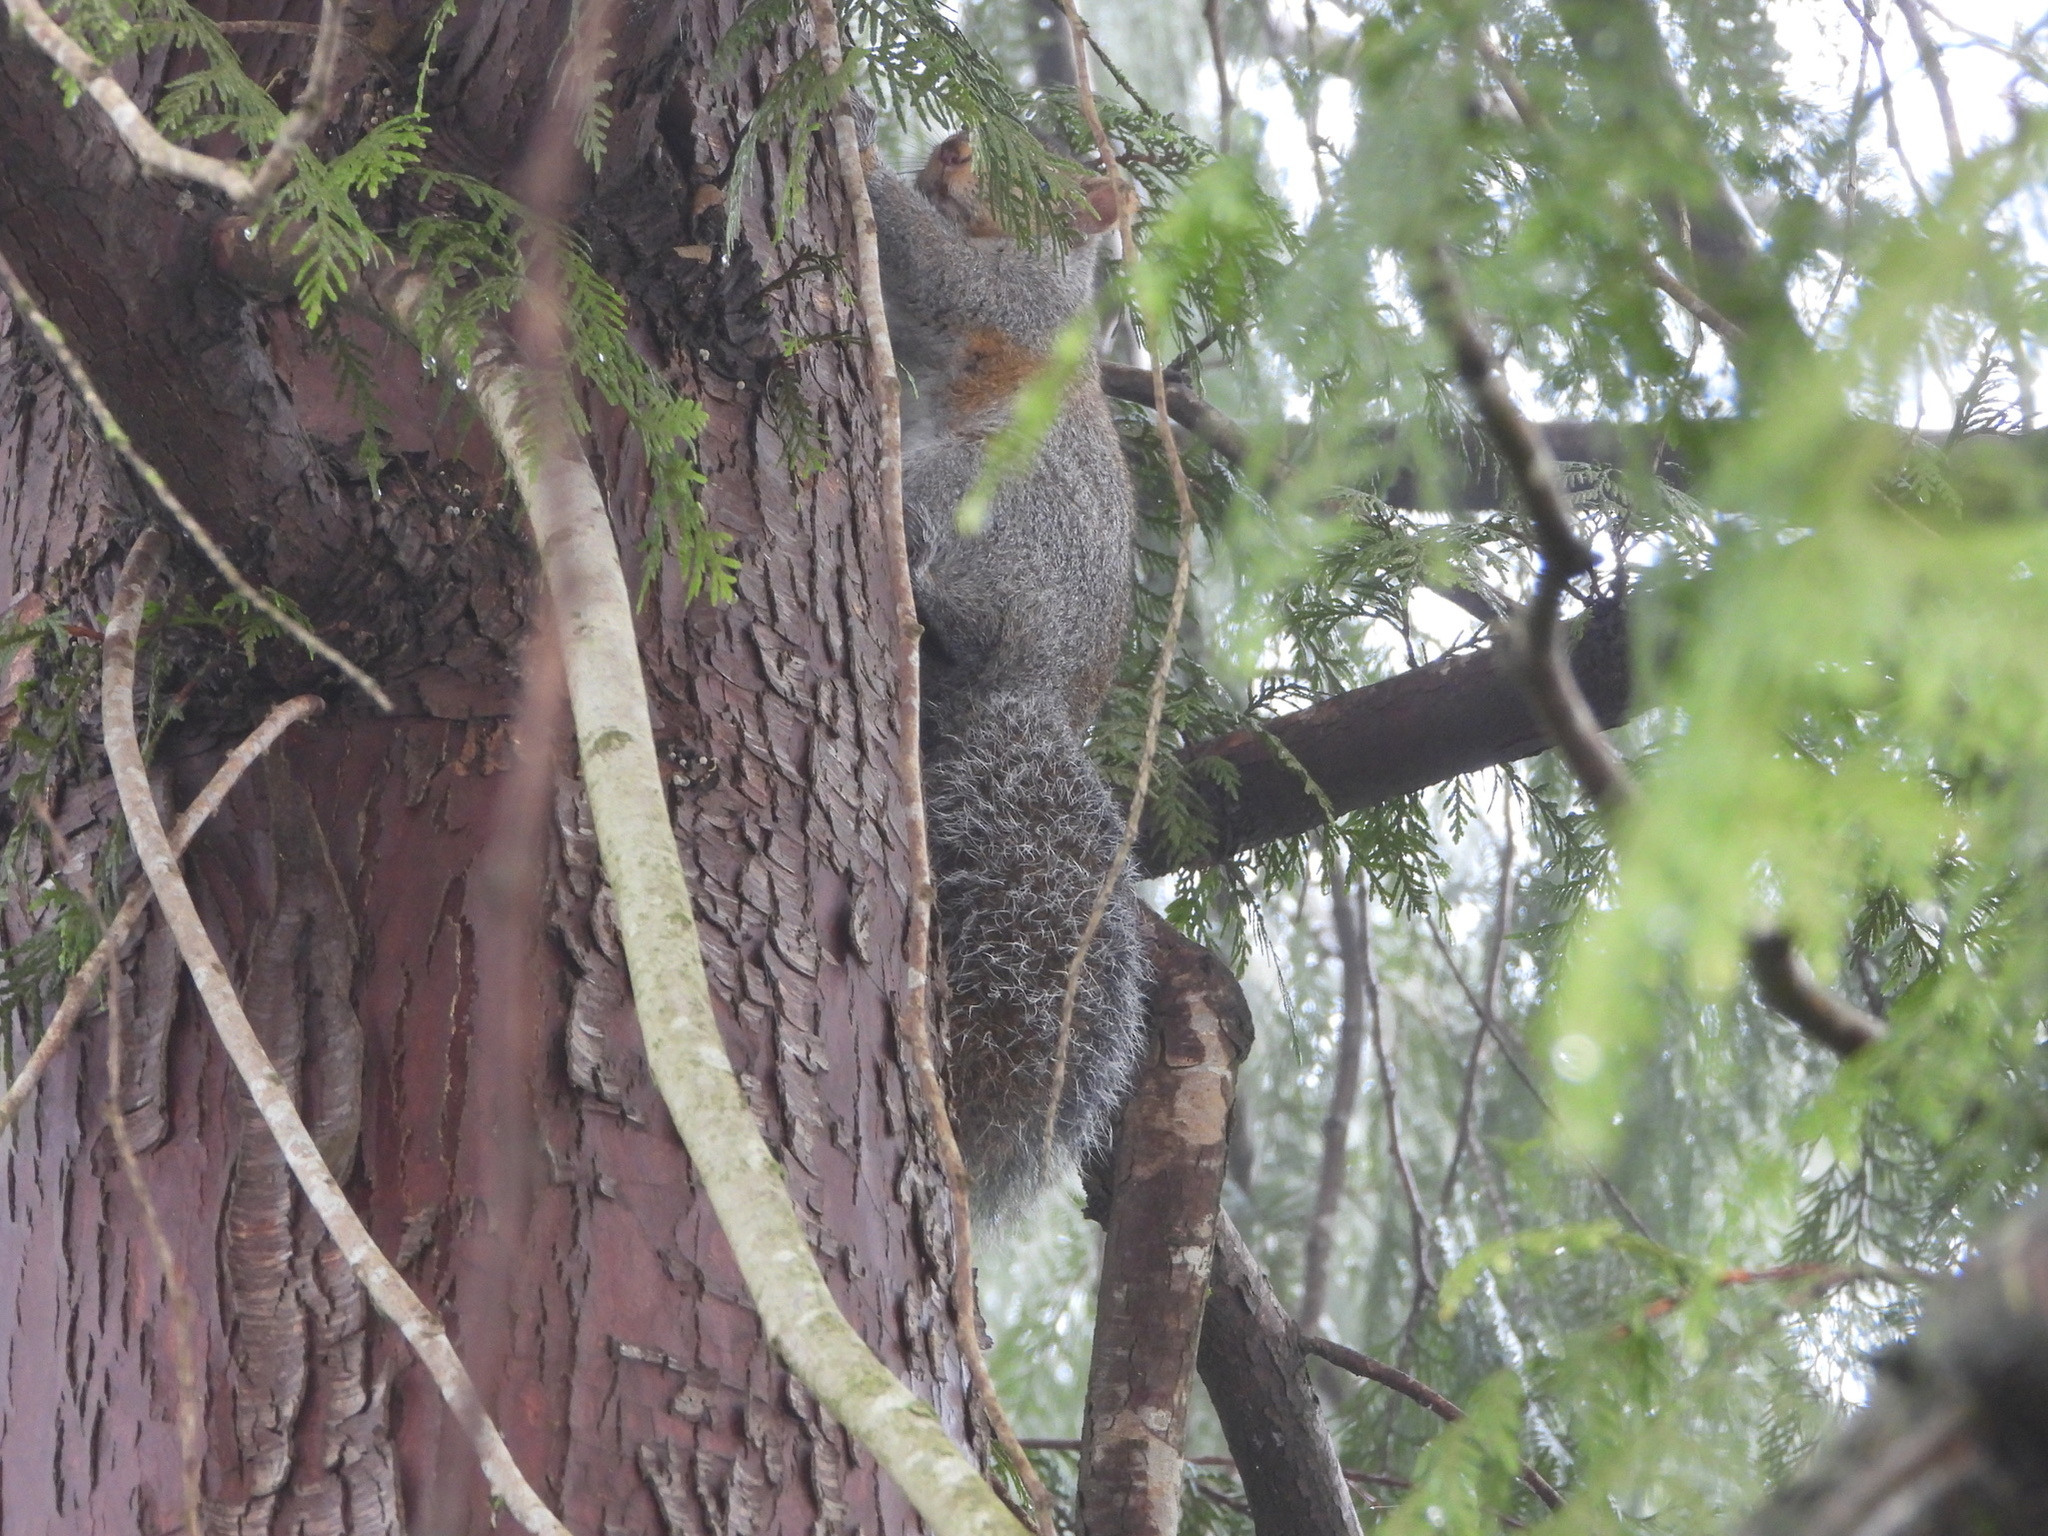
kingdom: Animalia
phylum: Chordata
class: Mammalia
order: Rodentia
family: Sciuridae
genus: Sciurus
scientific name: Sciurus carolinensis
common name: Eastern gray squirrel
